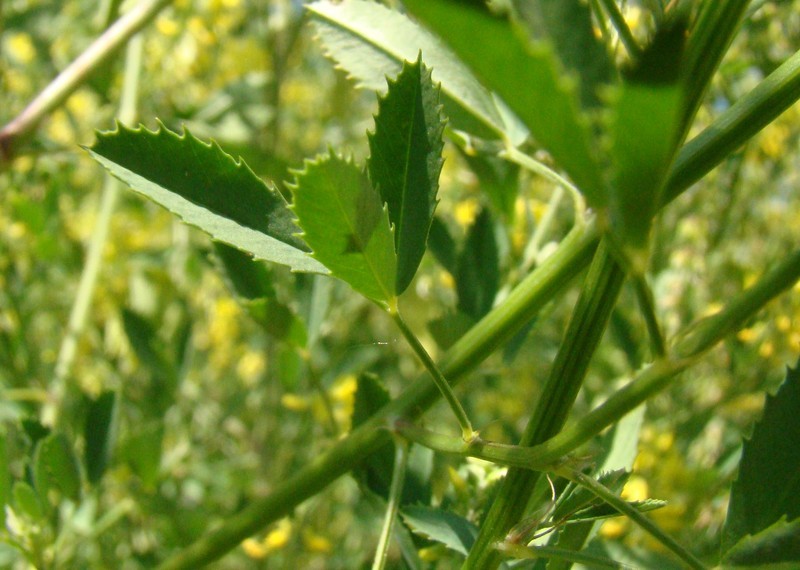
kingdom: Plantae
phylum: Tracheophyta
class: Magnoliopsida
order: Fabales
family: Fabaceae
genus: Melilotus
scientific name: Melilotus officinalis
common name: Sweetclover
